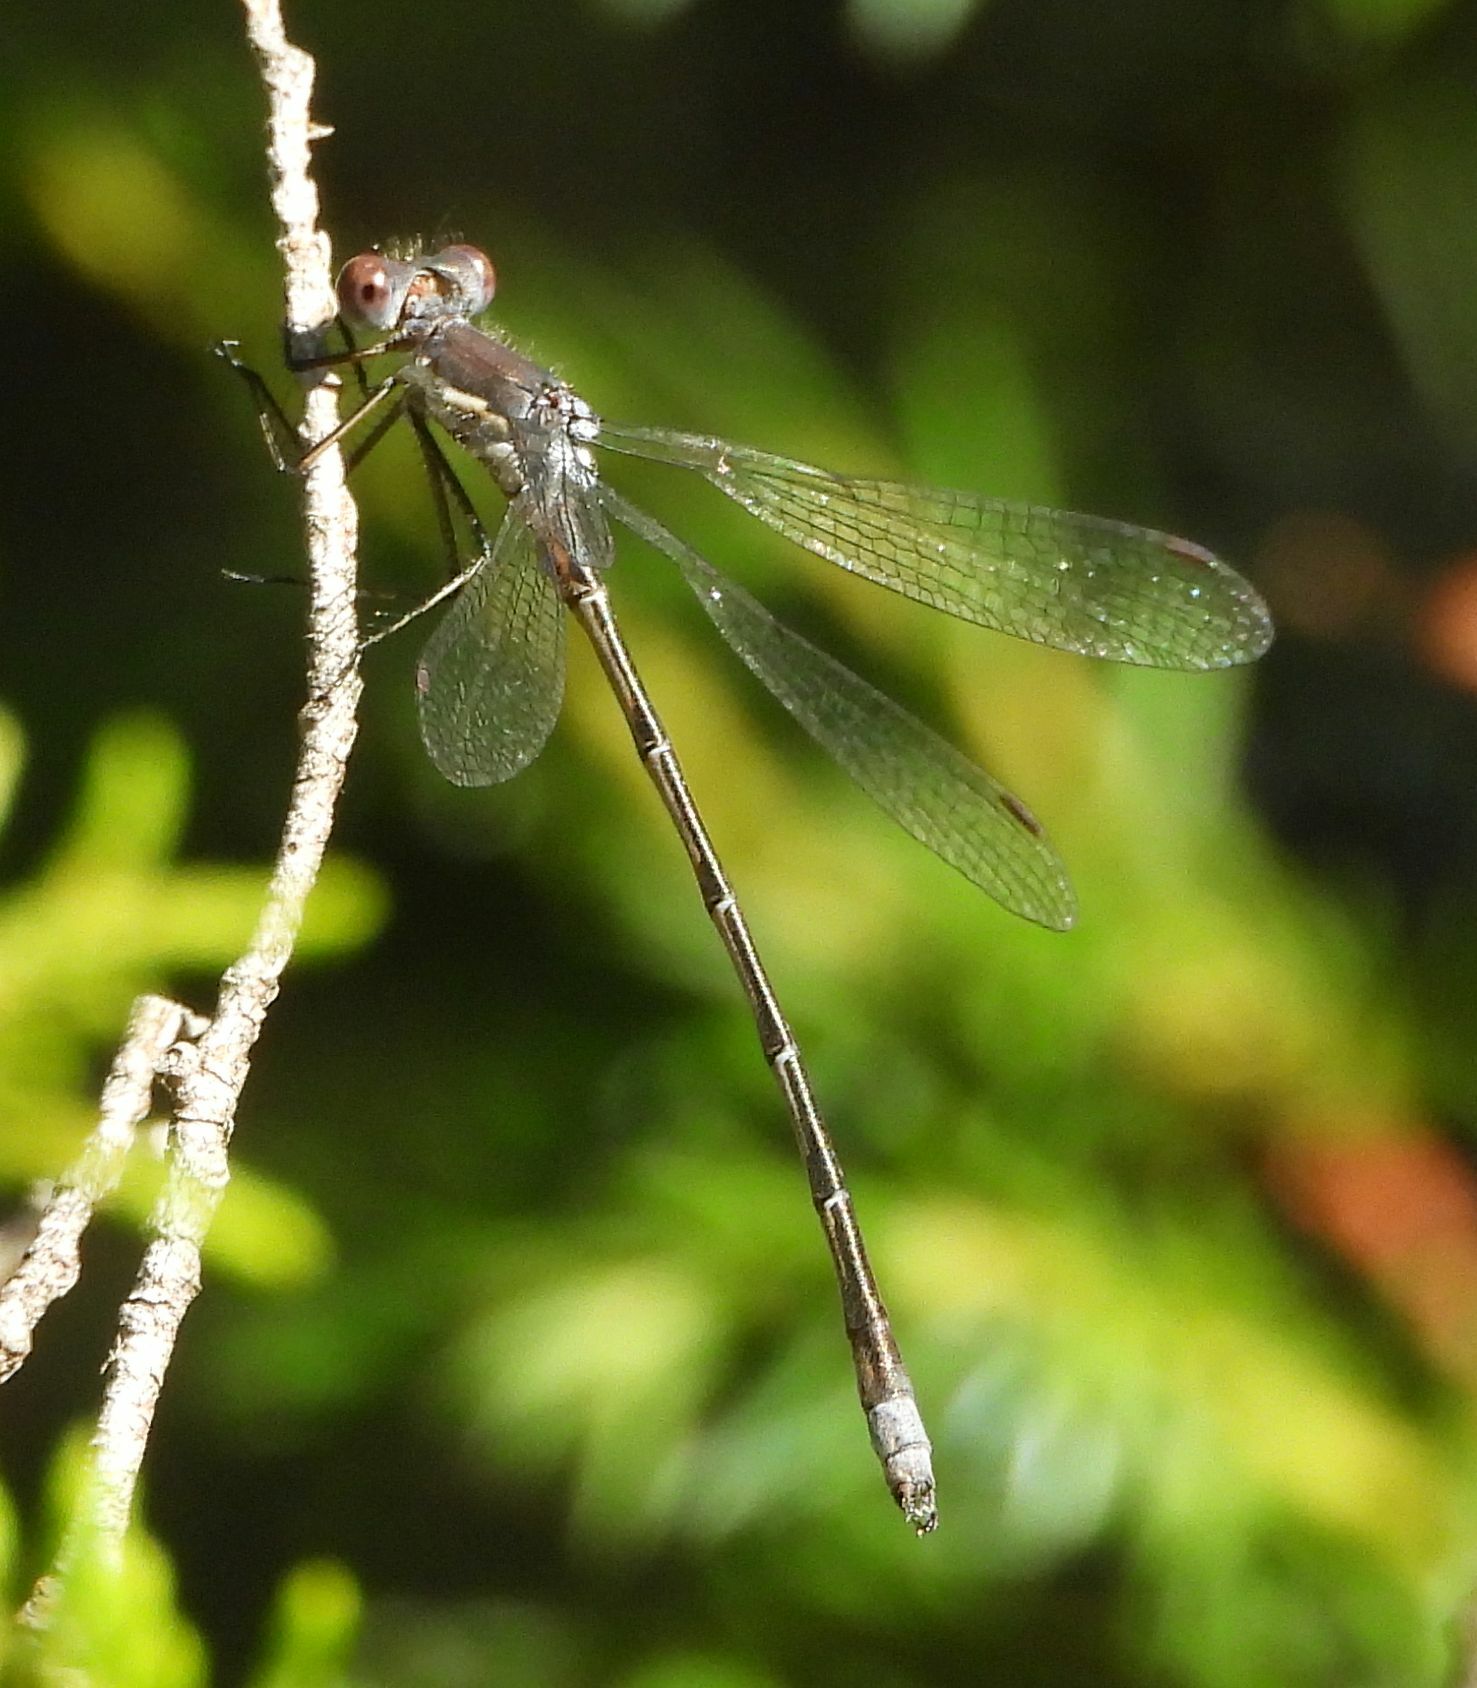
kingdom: Animalia
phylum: Arthropoda
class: Insecta
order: Odonata
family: Lestidae
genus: Lestes
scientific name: Lestes congener
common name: Spotted spreadwing
